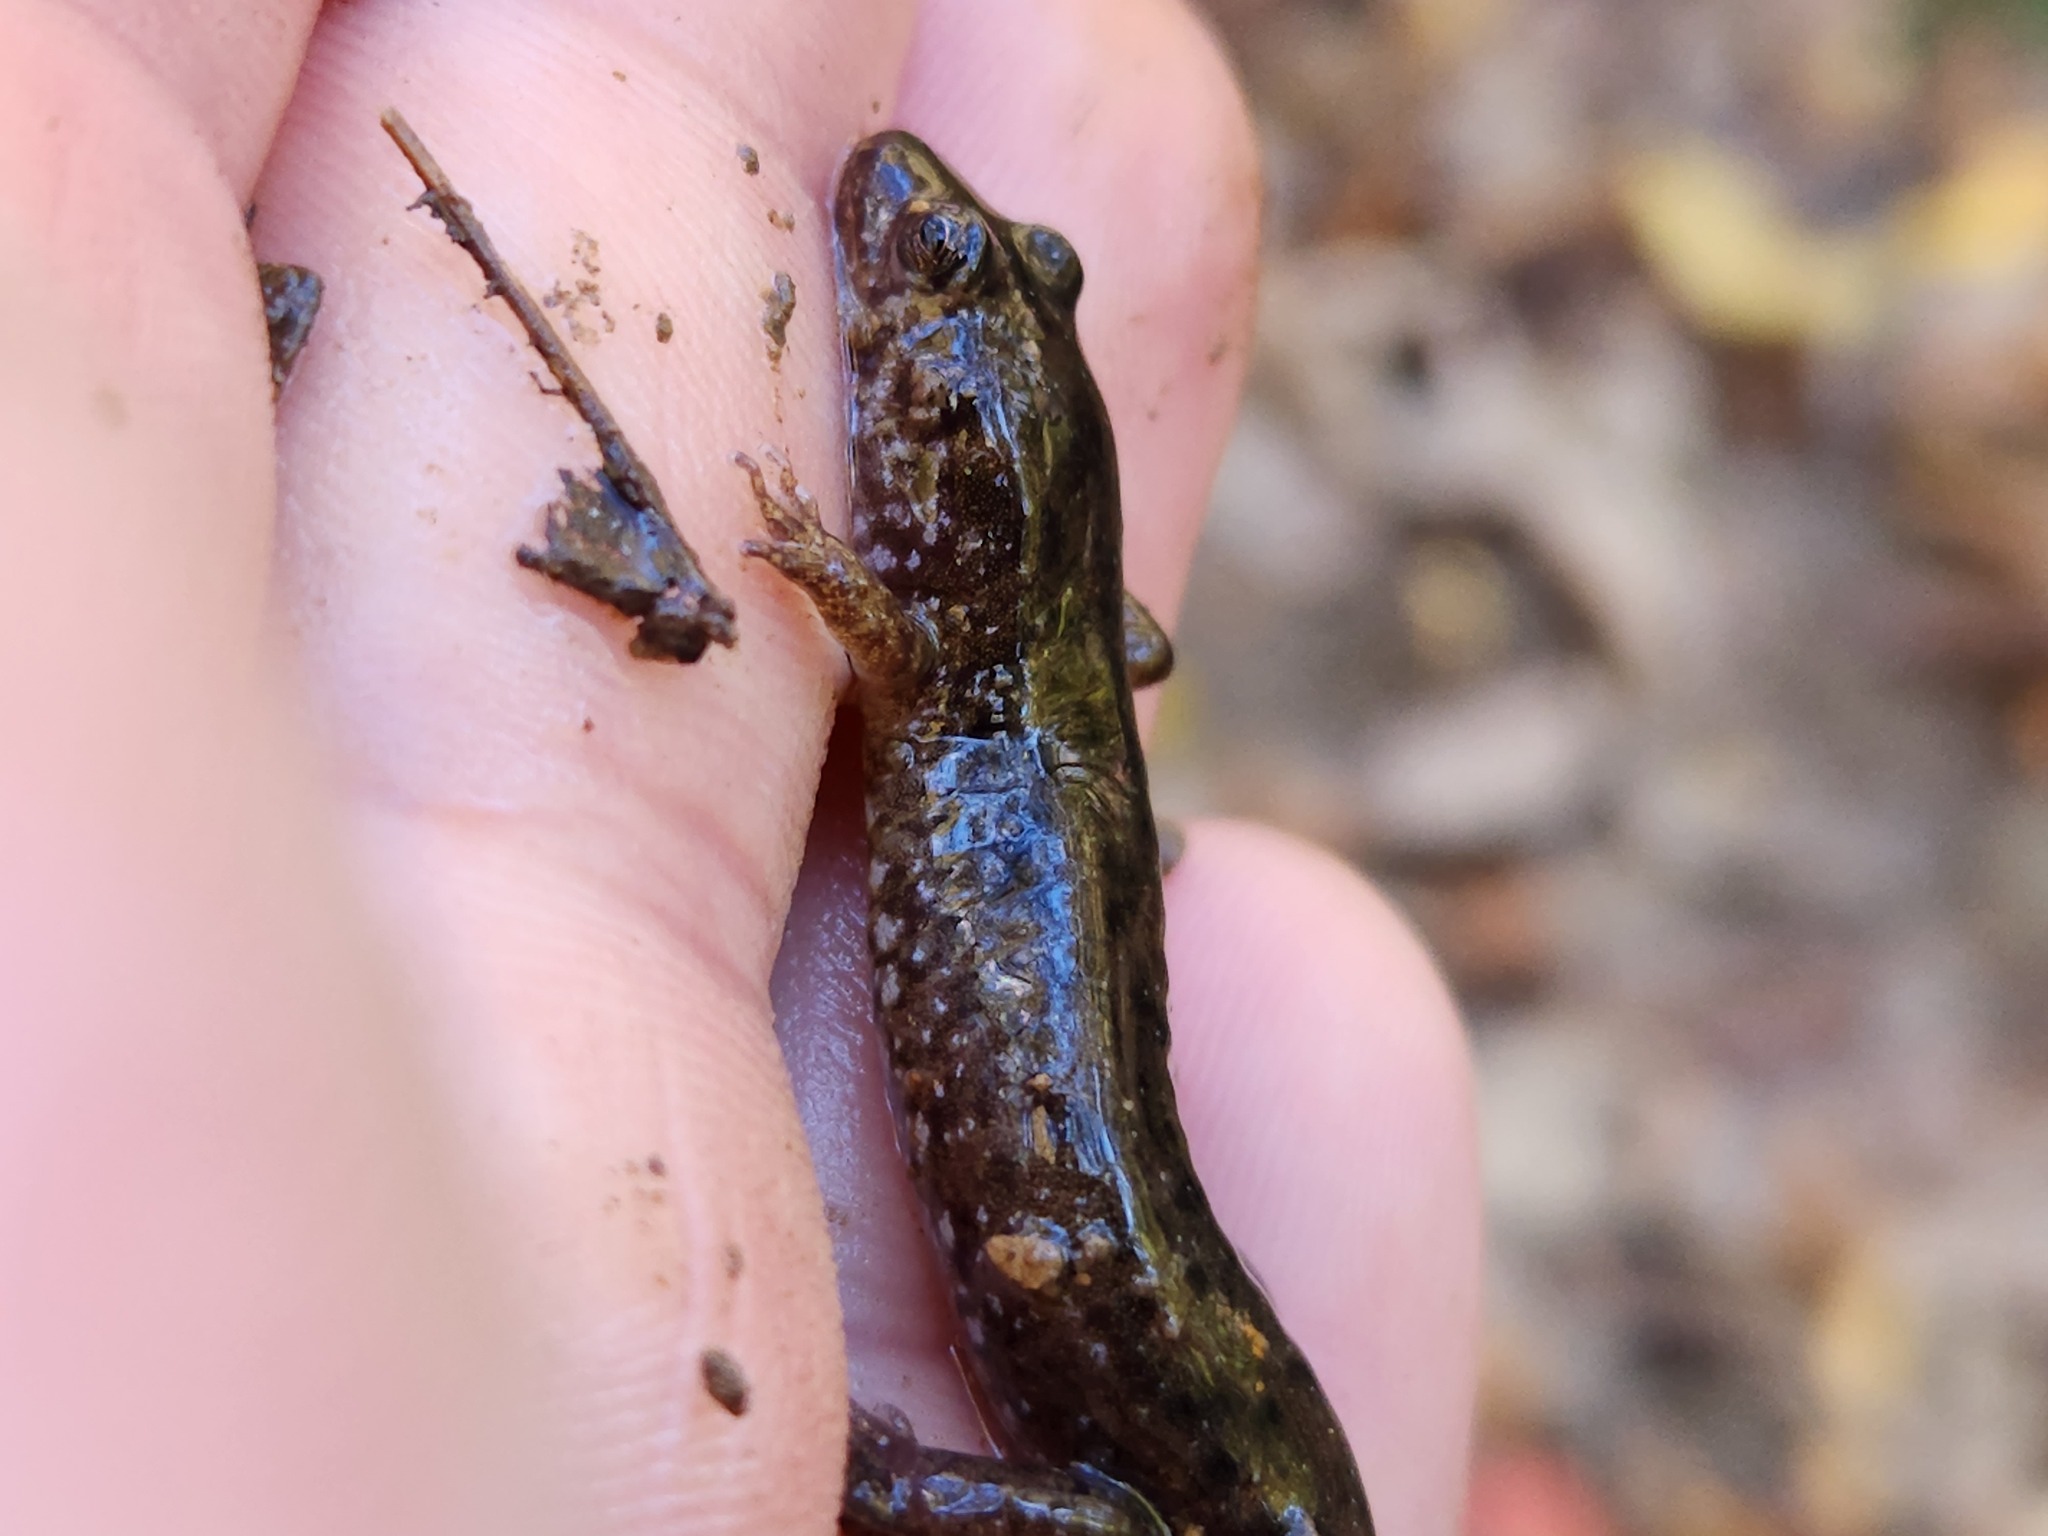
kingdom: Animalia
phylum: Chordata
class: Amphibia
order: Caudata
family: Plethodontidae
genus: Desmognathus
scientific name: Desmognathus monticola
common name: Seal salamander
